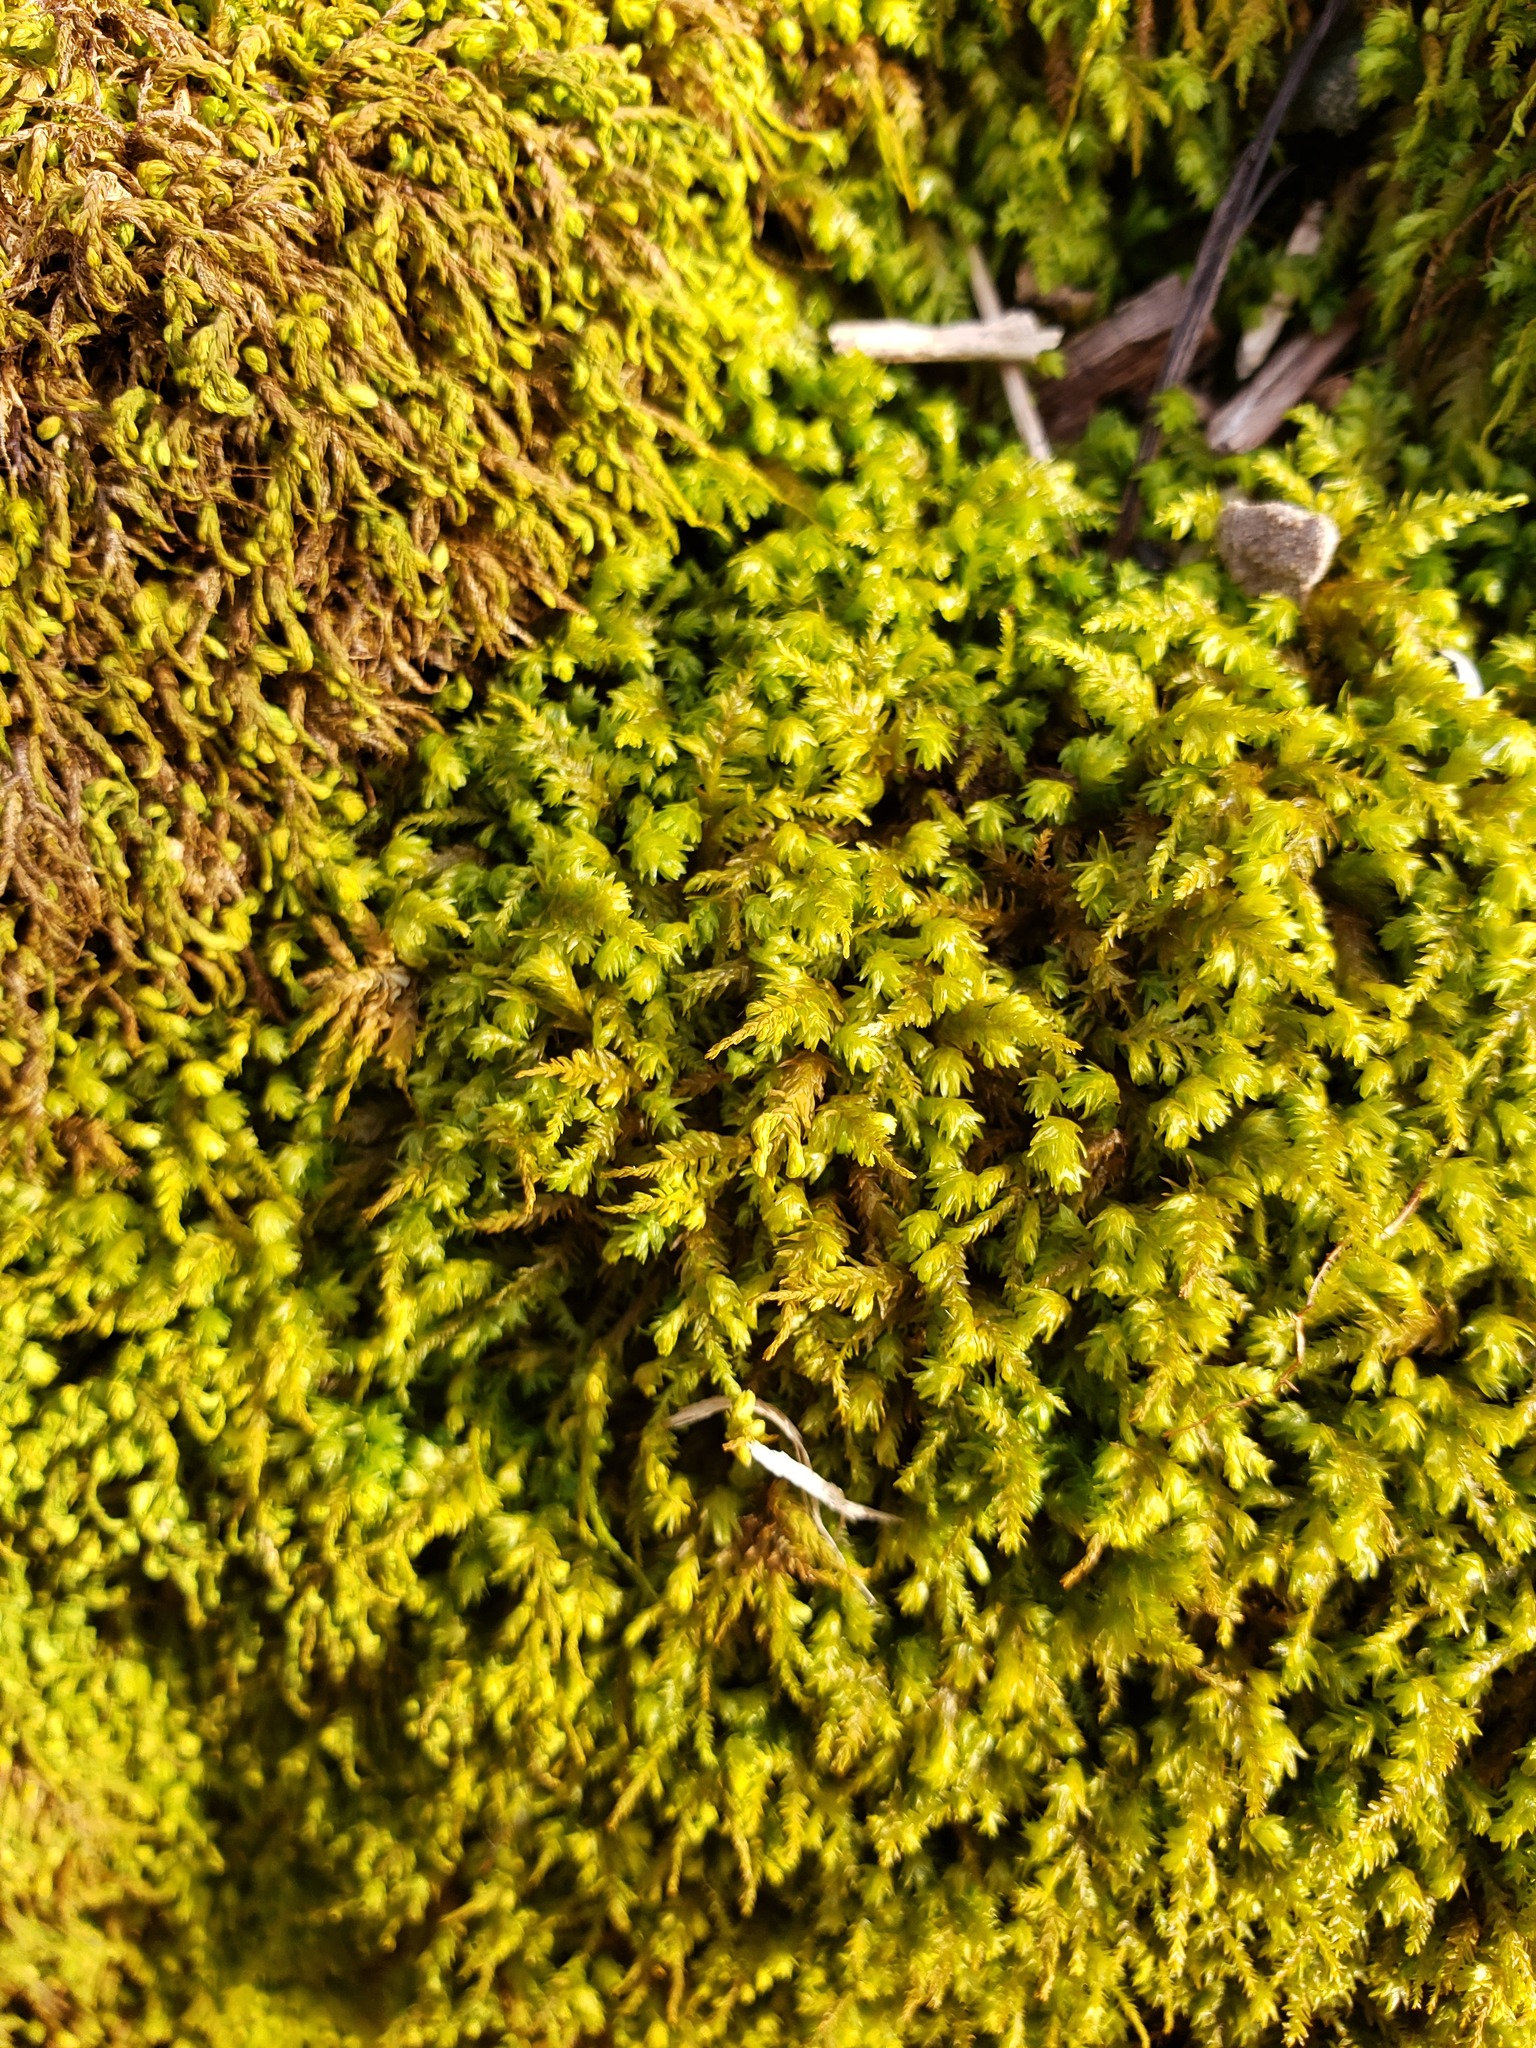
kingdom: Plantae
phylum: Bryophyta
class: Bryopsida
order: Hypnales
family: Neckeraceae
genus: Pseudanomodon
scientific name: Pseudanomodon attenuatus
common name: Tree-skirt moss
